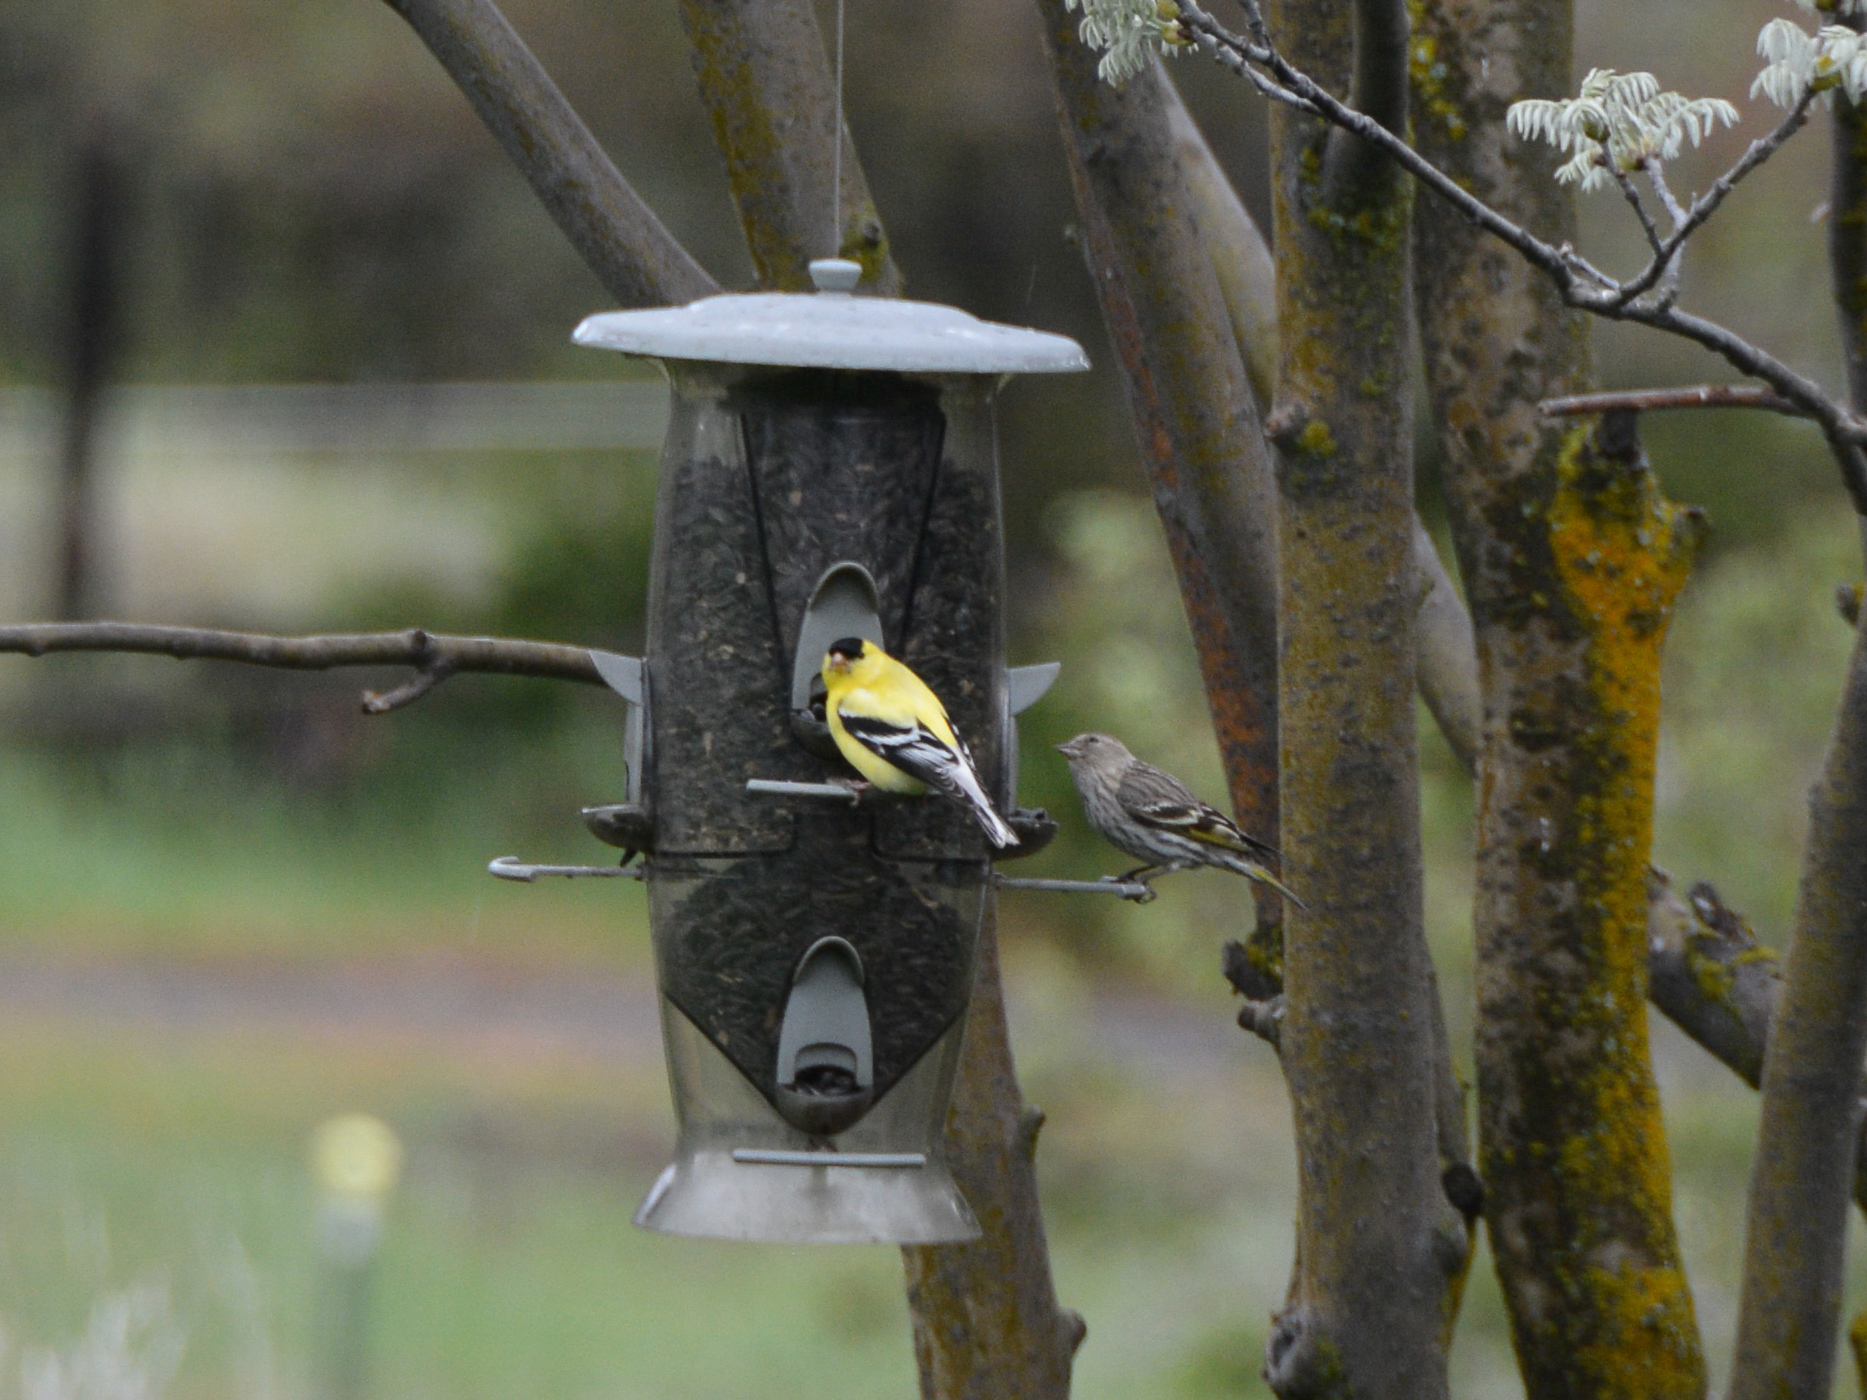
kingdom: Animalia
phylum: Chordata
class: Aves
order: Passeriformes
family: Fringillidae
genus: Spinus
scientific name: Spinus tristis
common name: American goldfinch
